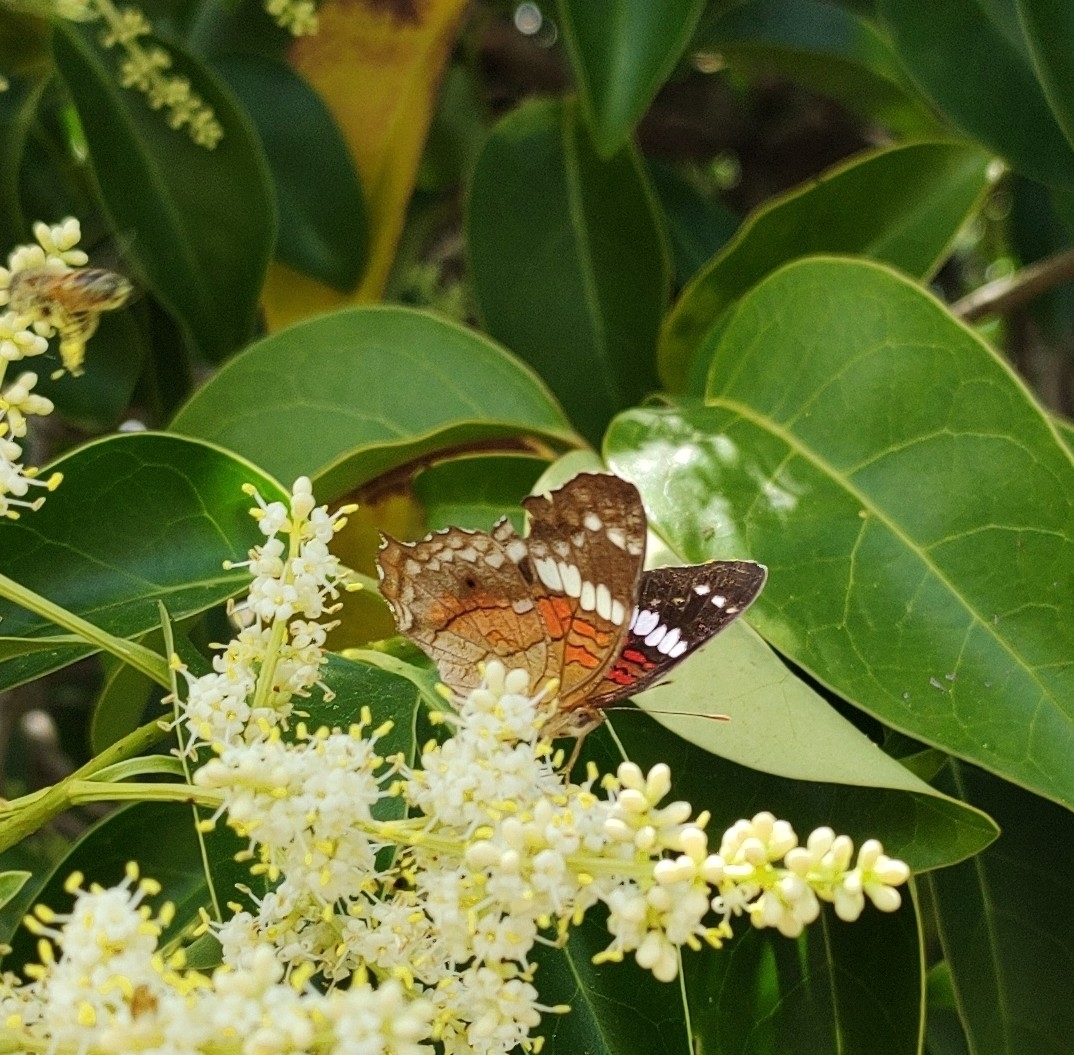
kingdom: Animalia
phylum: Arthropoda
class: Insecta
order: Lepidoptera
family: Nymphalidae
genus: Anartia
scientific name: Anartia amathea
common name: Red peacock
